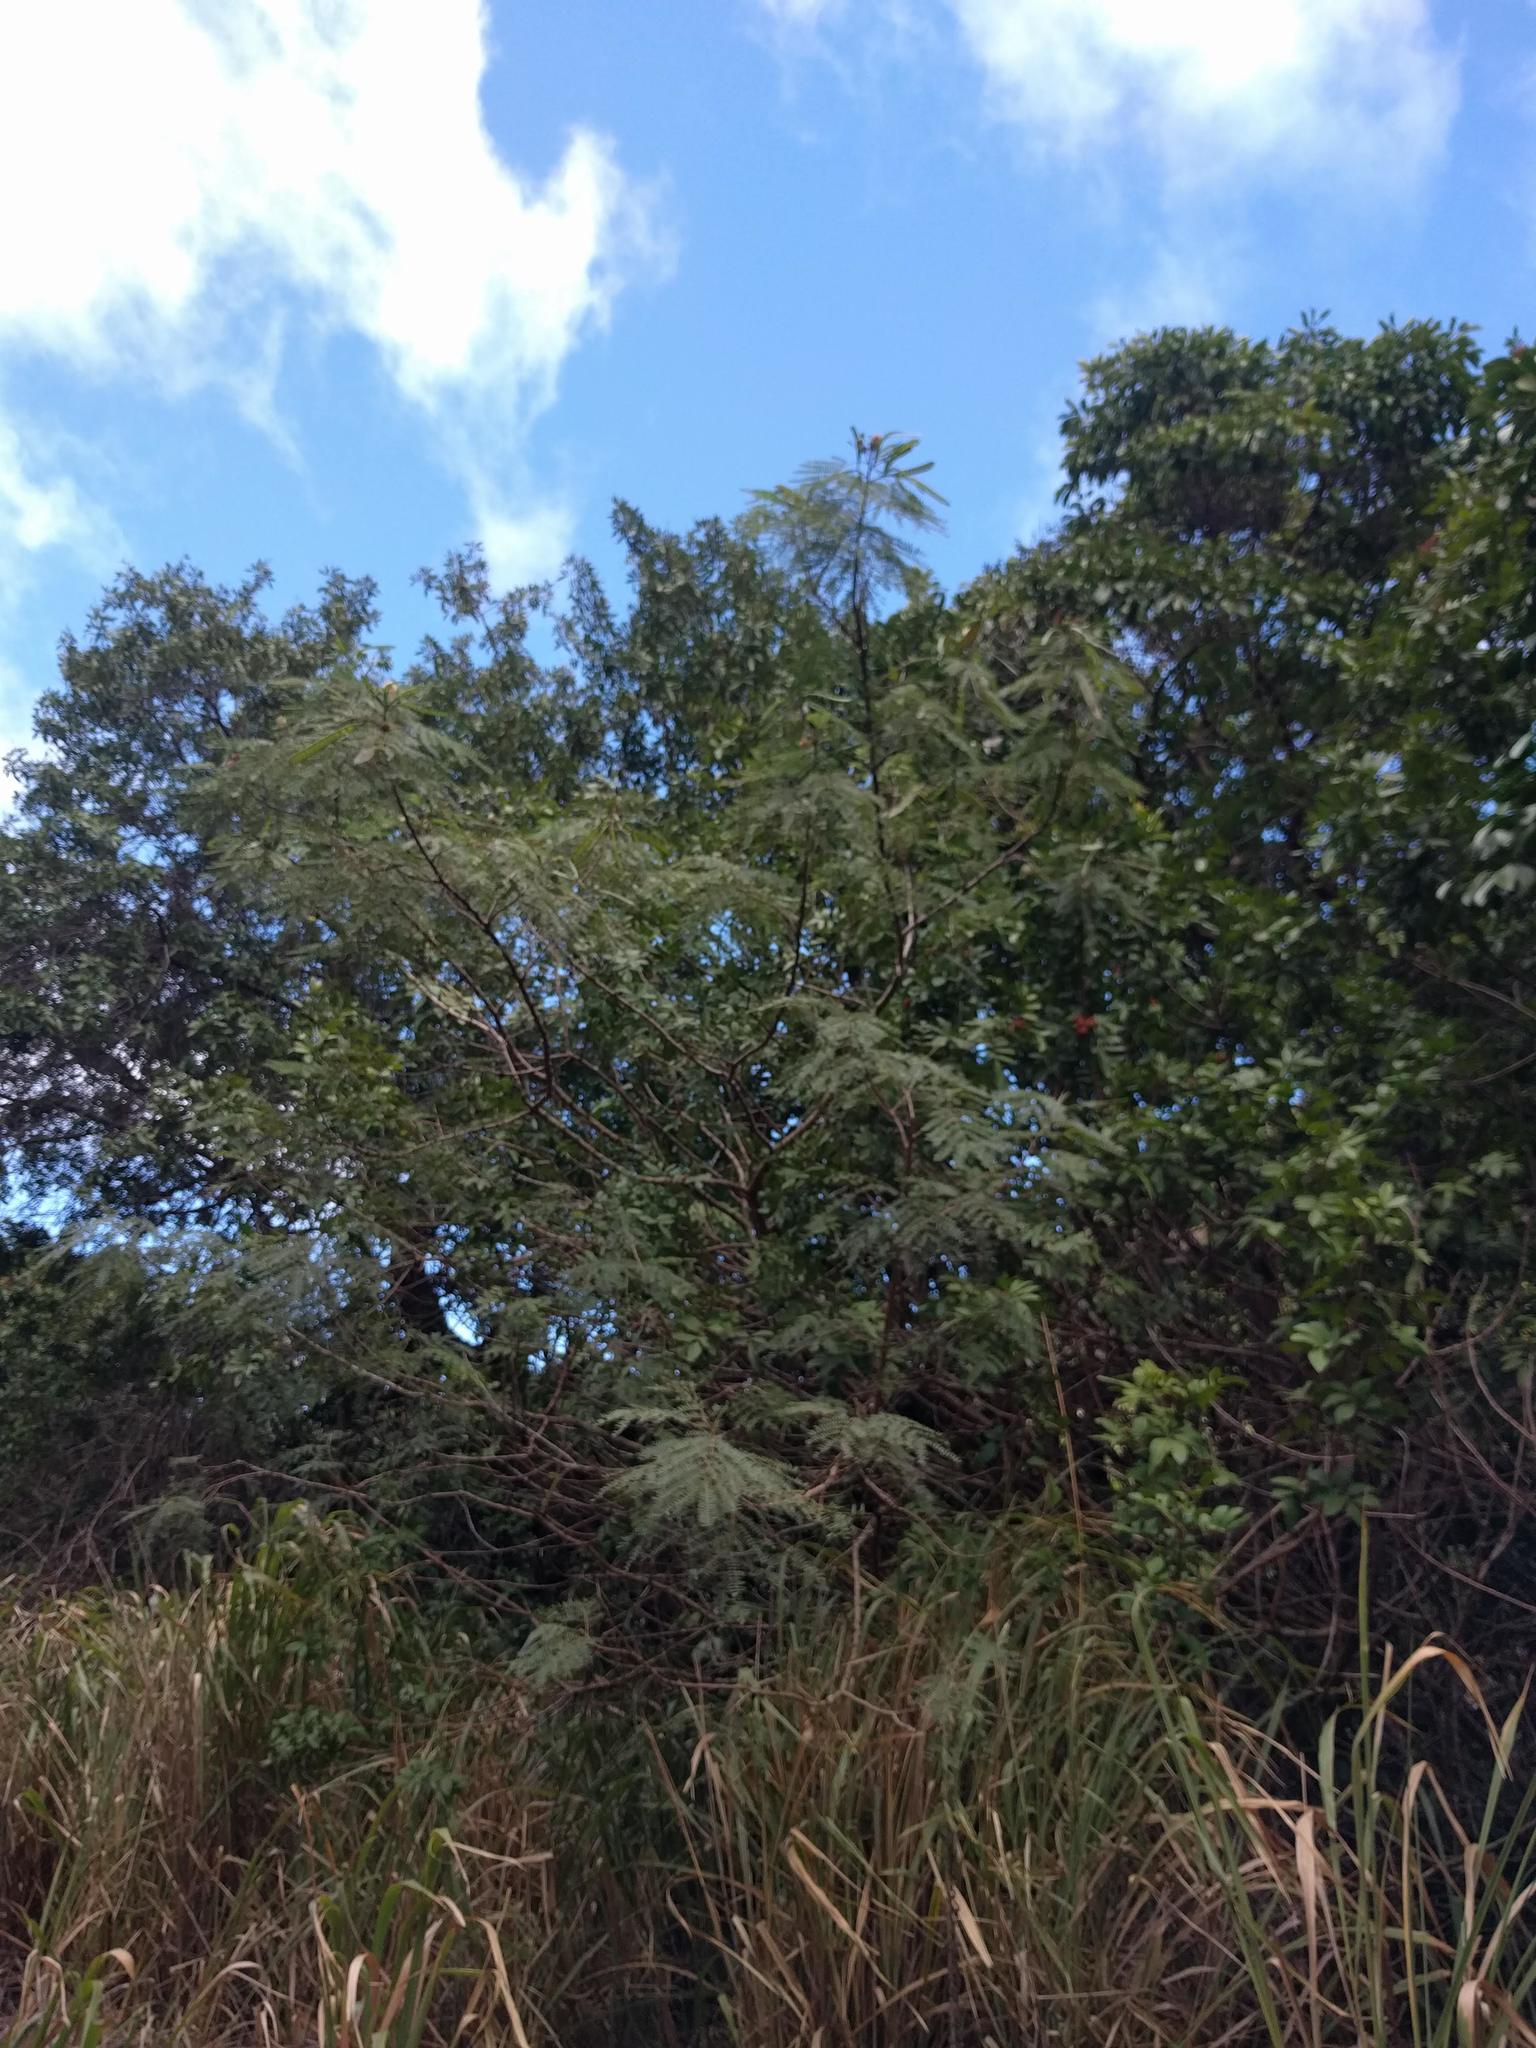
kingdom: Plantae
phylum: Tracheophyta
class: Magnoliopsida
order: Fabales
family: Fabaceae
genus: Leucaena
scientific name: Leucaena leucocephala
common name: White leadtree
